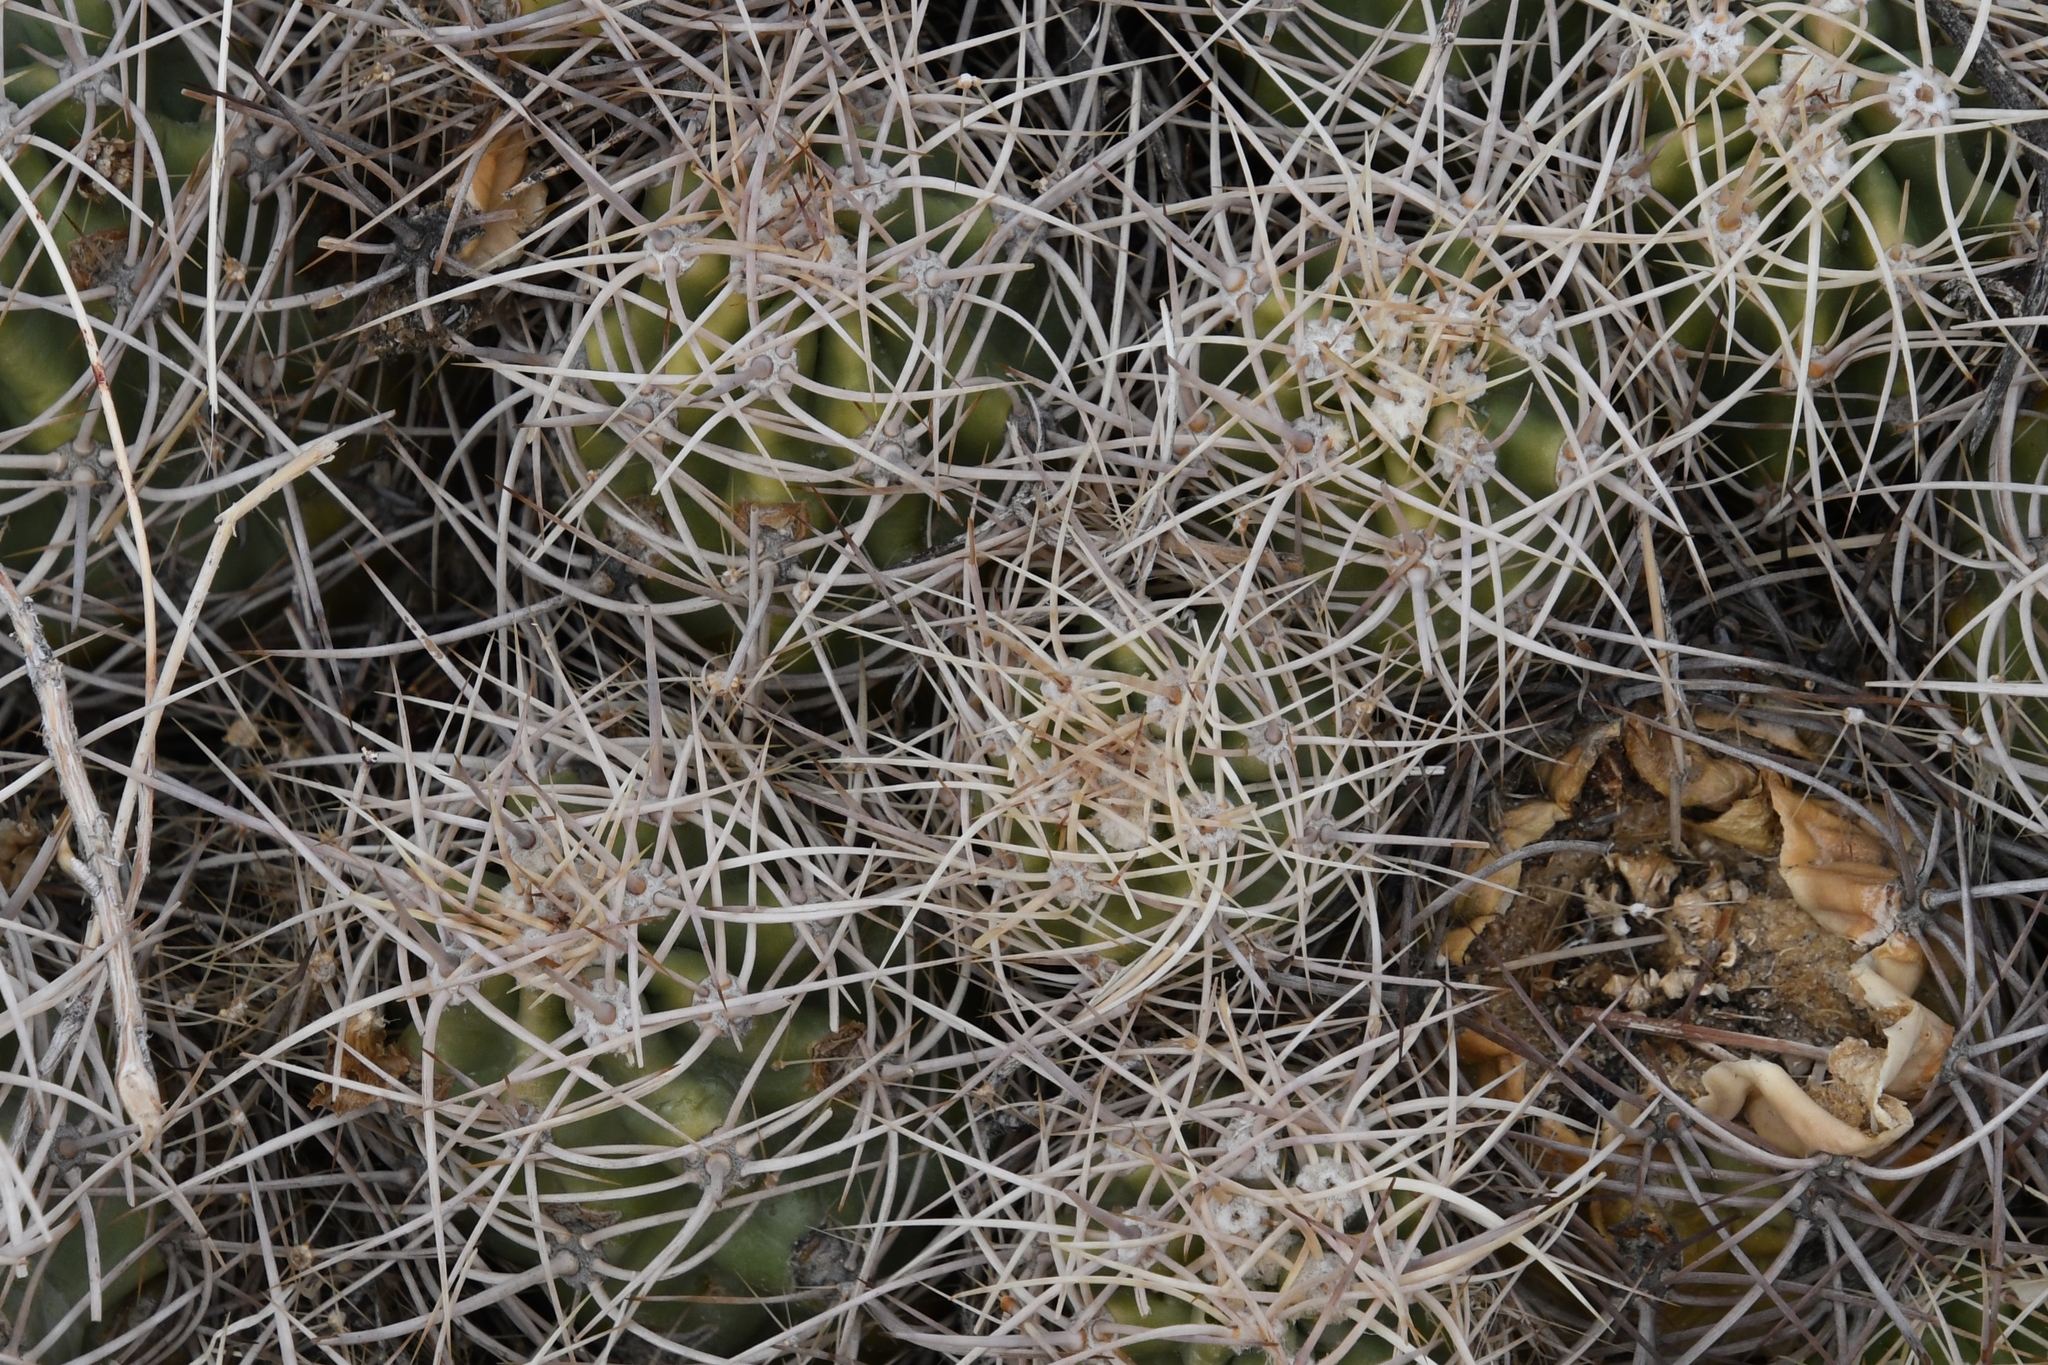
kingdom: Plantae
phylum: Tracheophyta
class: Magnoliopsida
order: Caryophyllales
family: Cactaceae
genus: Echinocereus
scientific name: Echinocereus triglochidiatus
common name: Claretcup hedgehog
